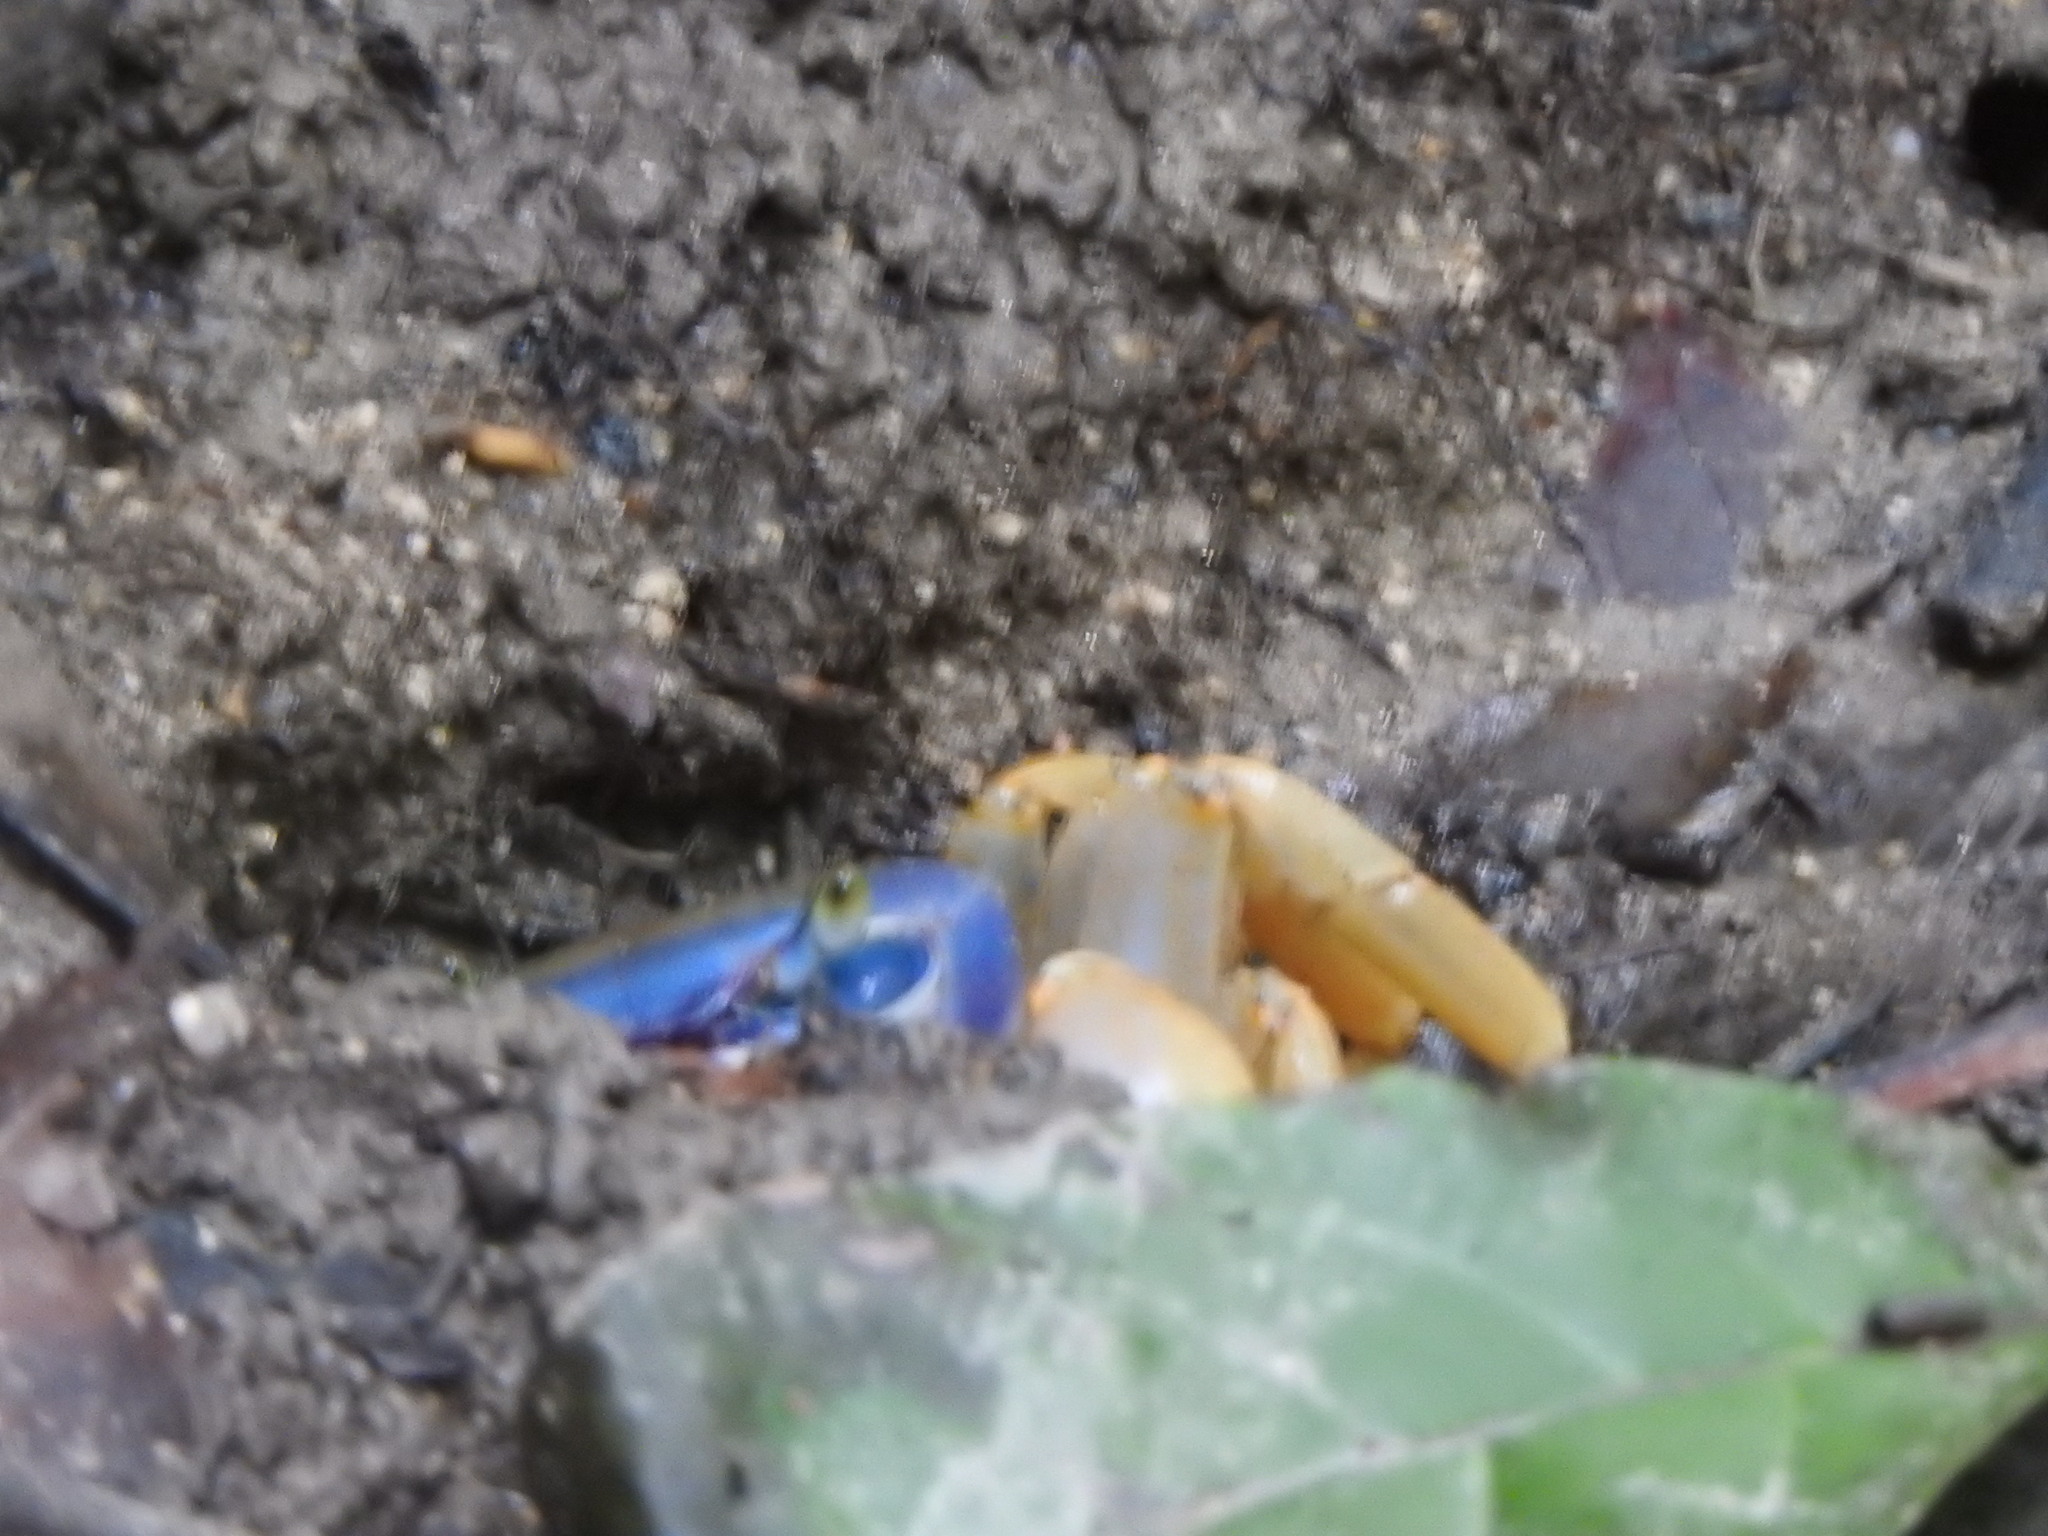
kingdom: Animalia
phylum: Arthropoda
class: Malacostraca
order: Decapoda
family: Gecarcinidae
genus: Cardisoma
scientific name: Cardisoma guanhumi
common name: Great land crab
